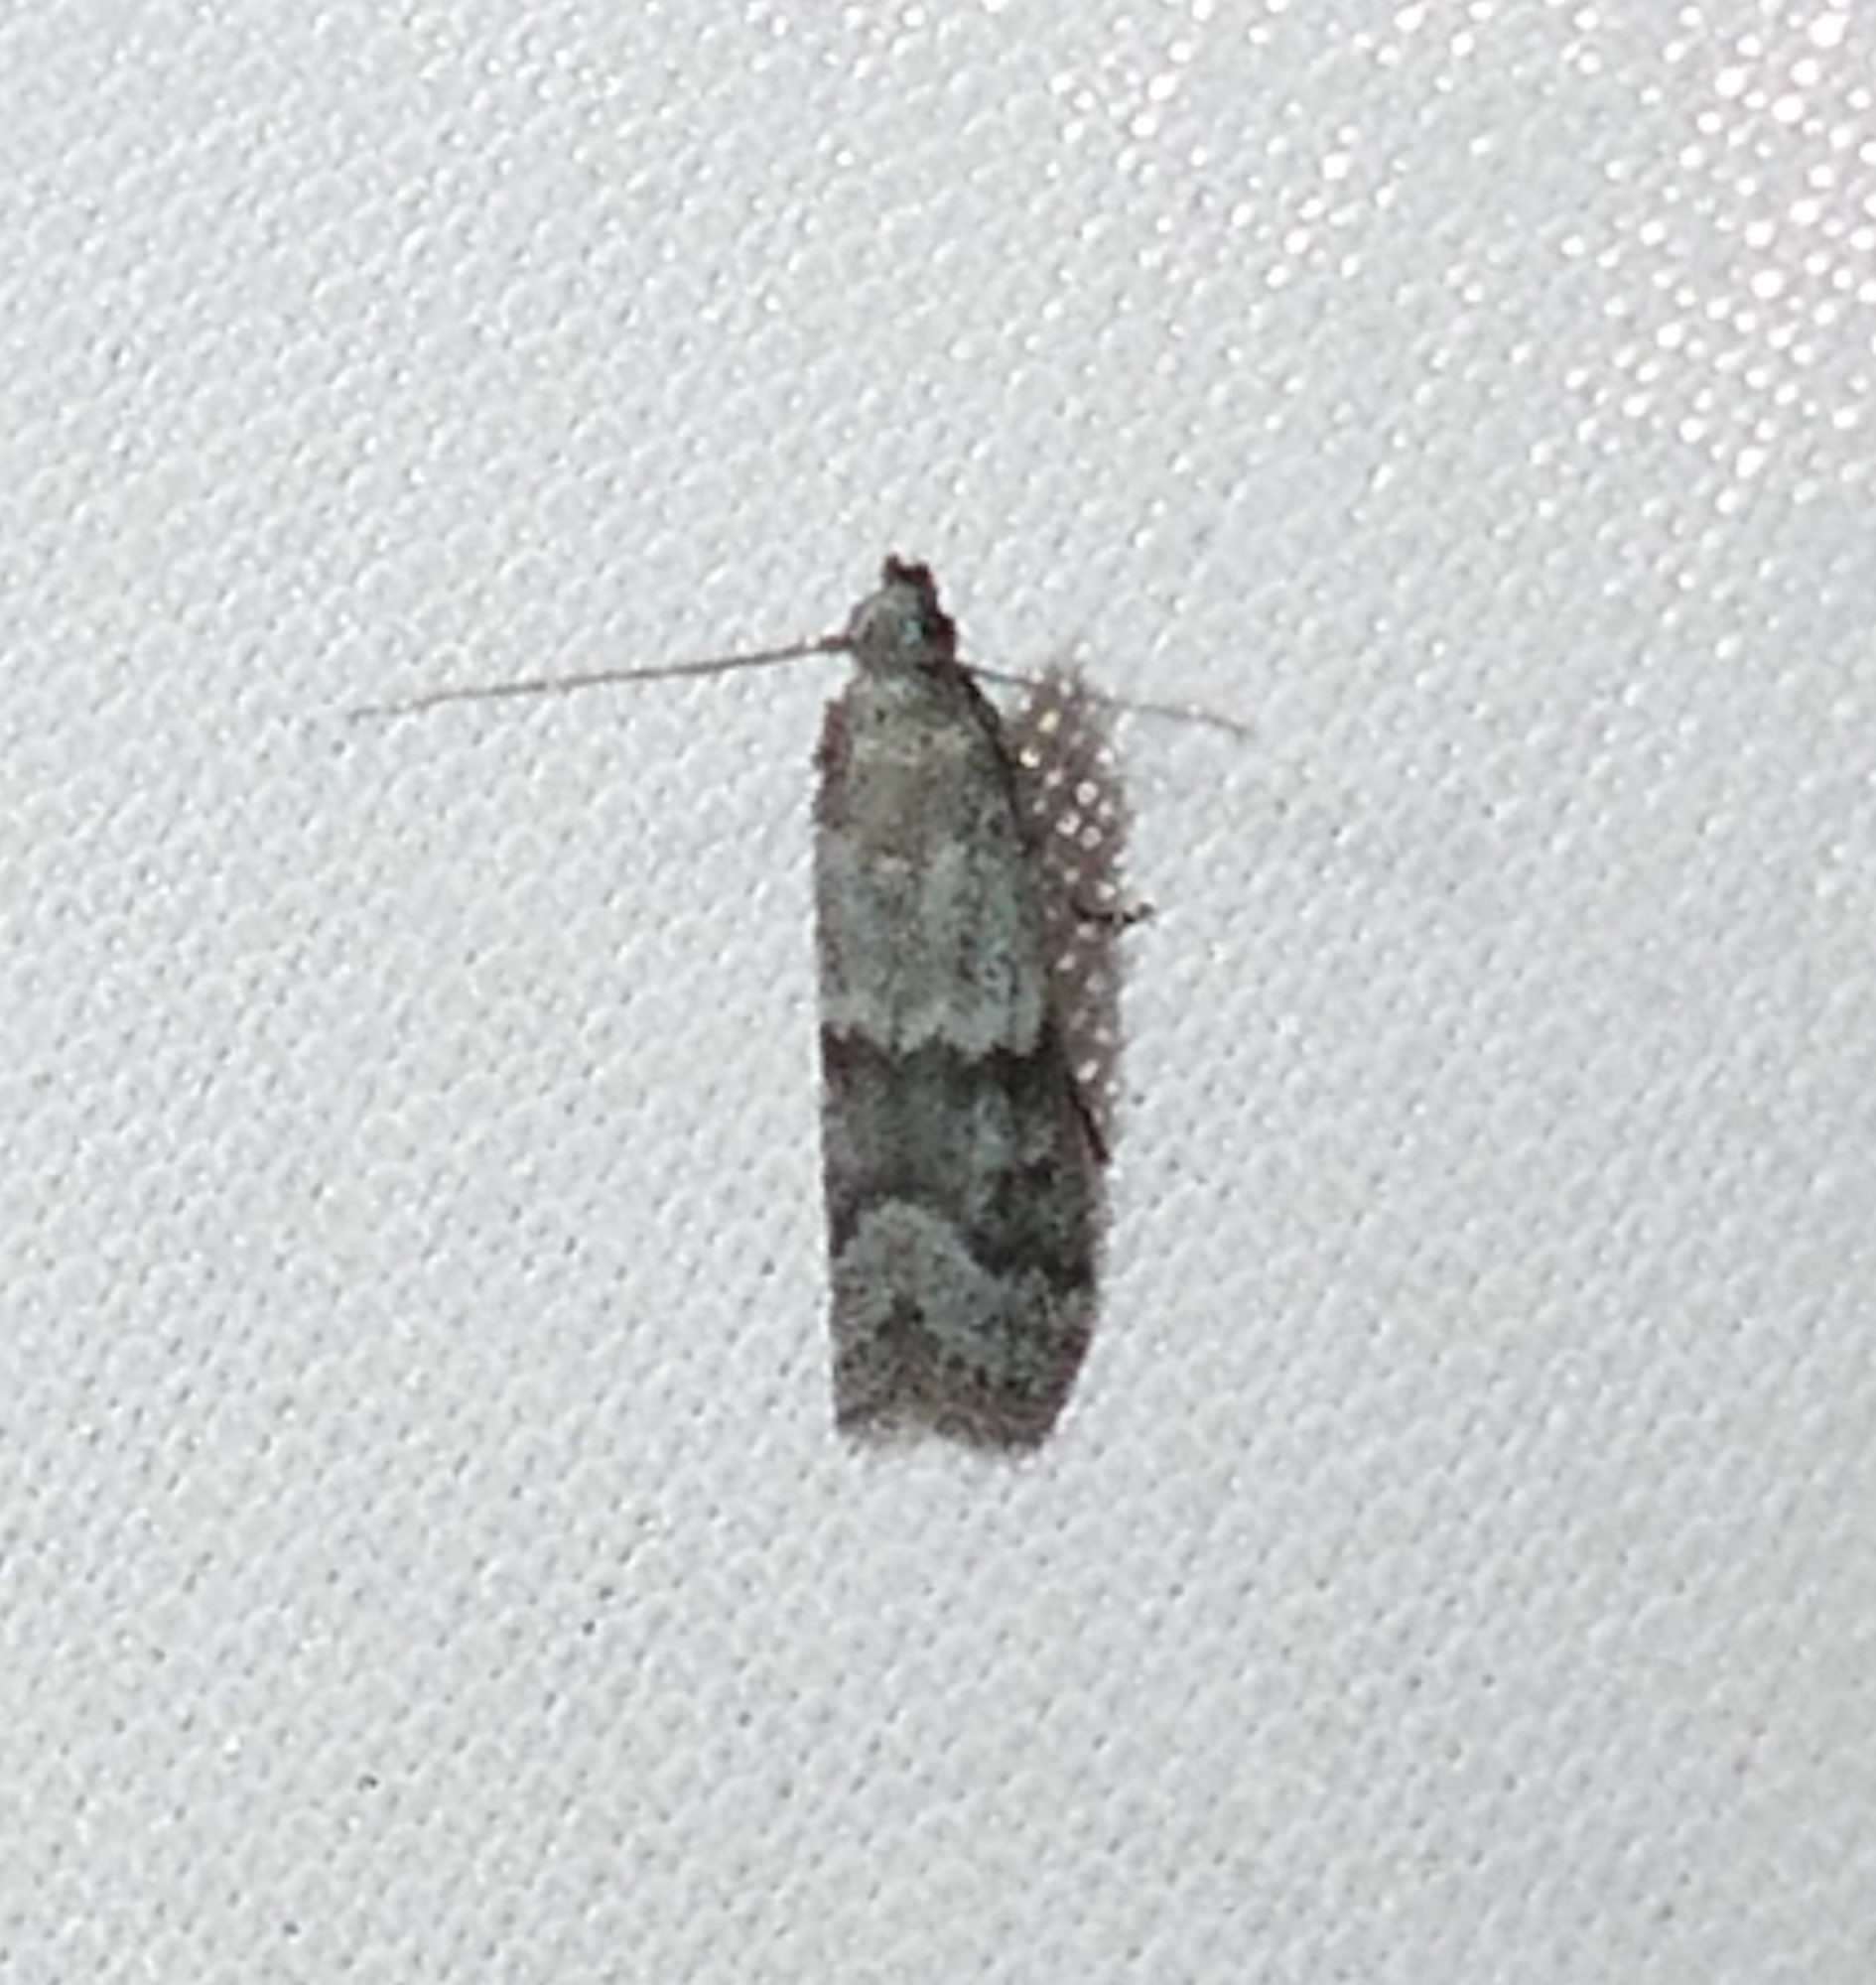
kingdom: Animalia
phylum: Arthropoda
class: Insecta
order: Lepidoptera
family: Pyralidae
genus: Eurythmia
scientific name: Eurythmia angulella
